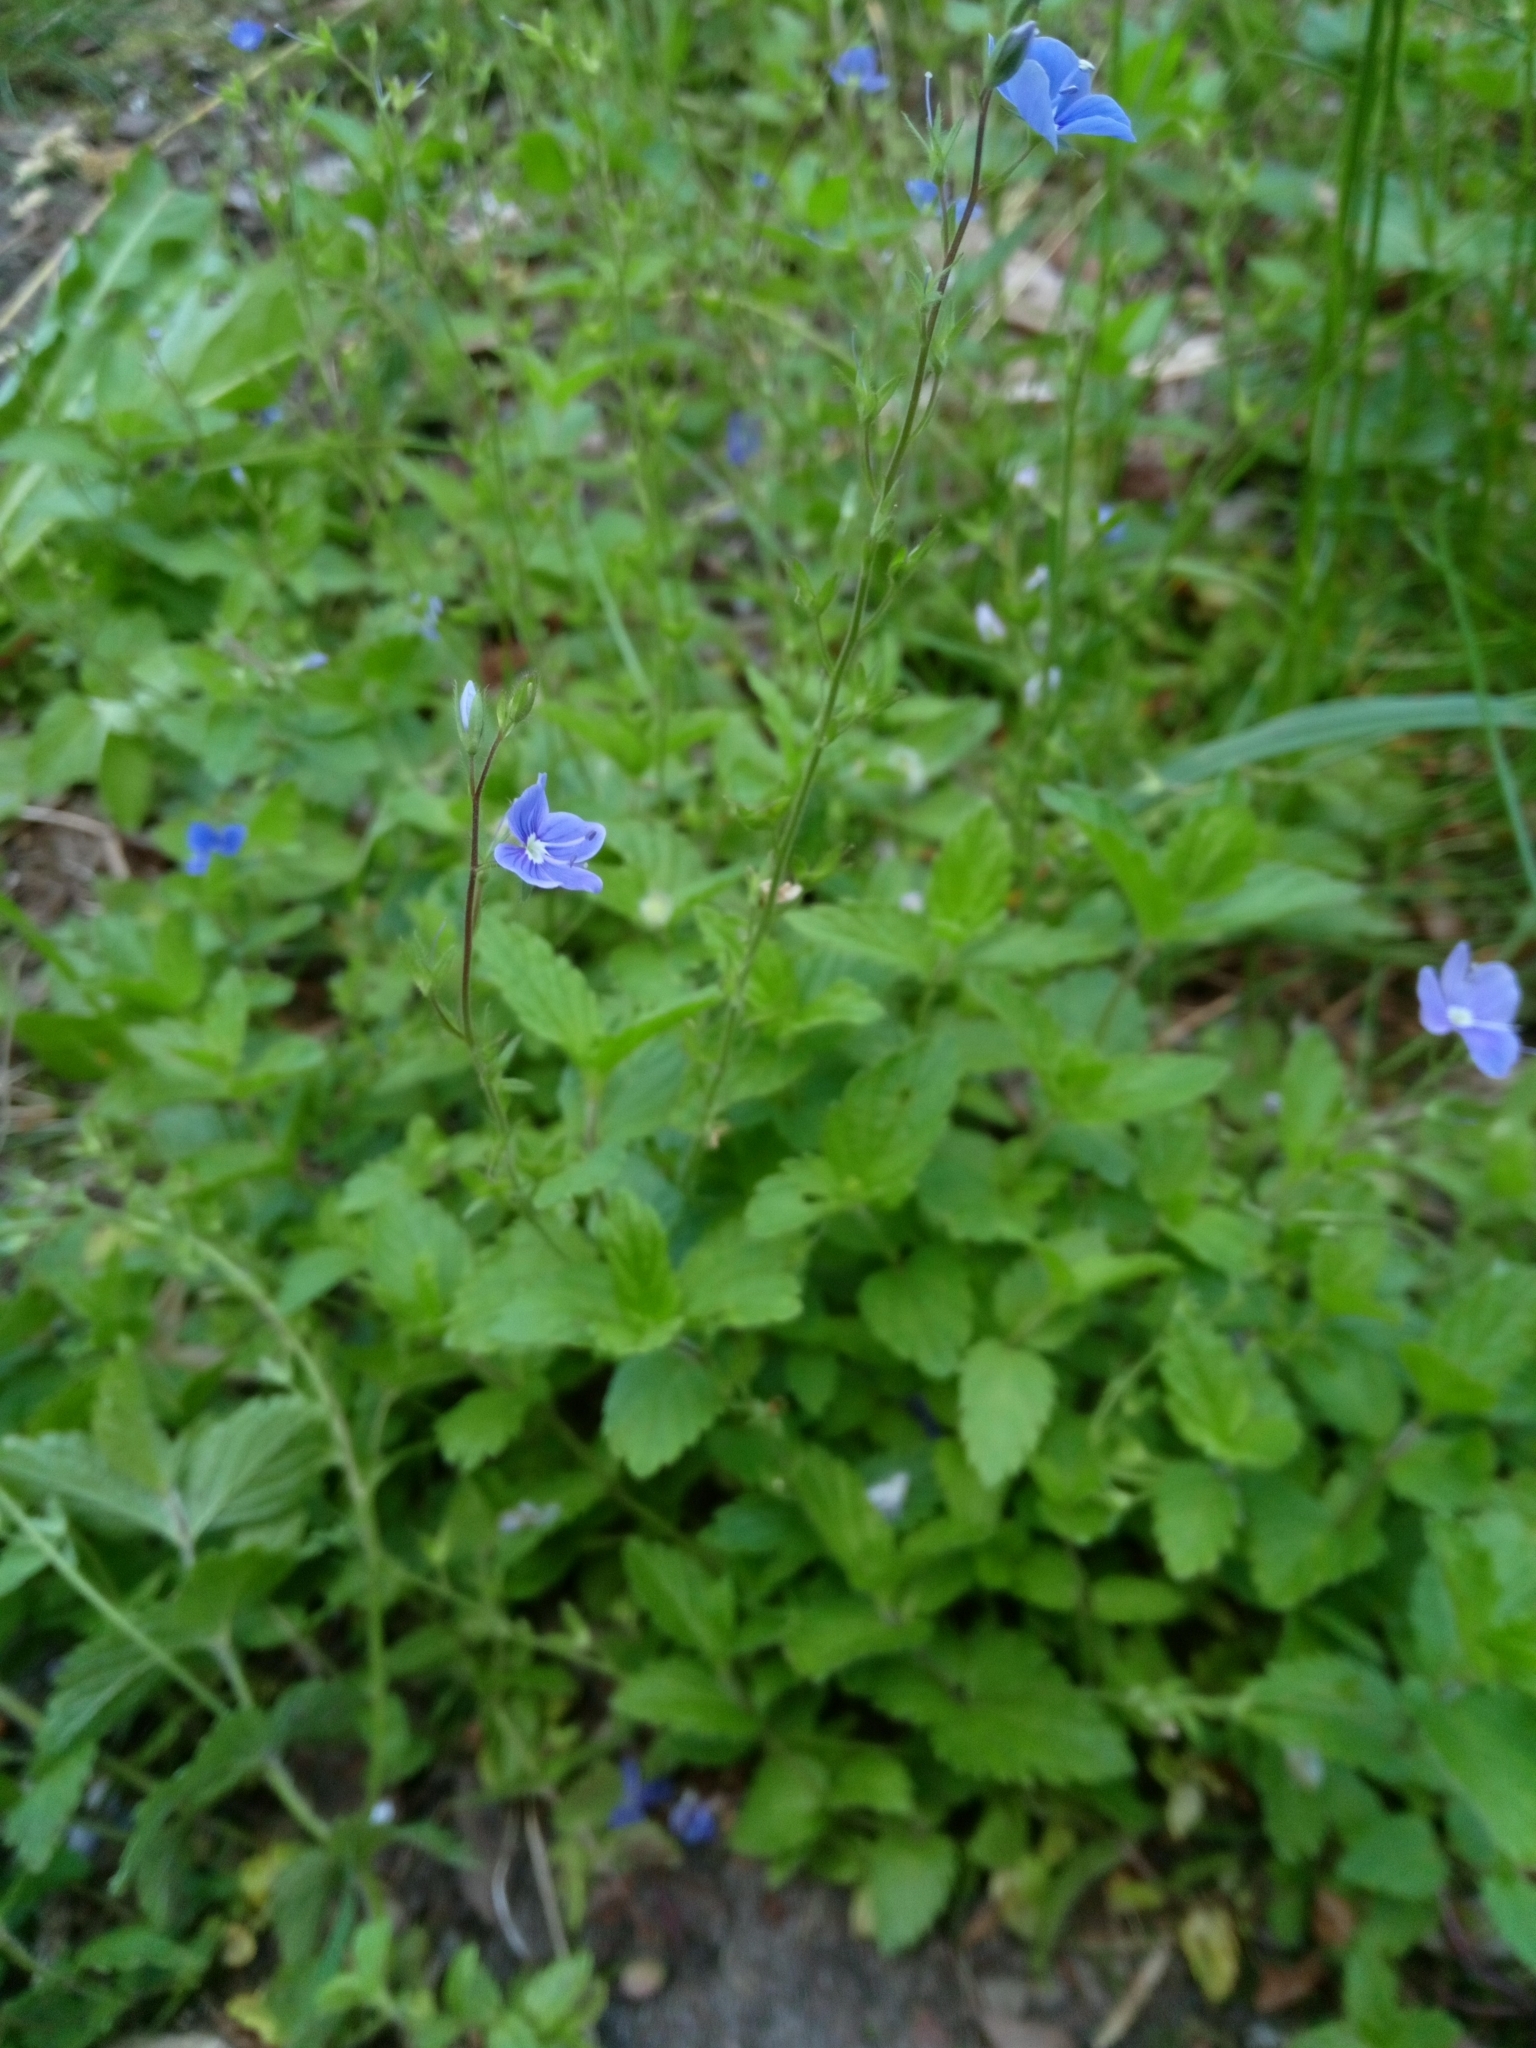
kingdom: Plantae
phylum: Tracheophyta
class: Magnoliopsida
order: Lamiales
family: Plantaginaceae
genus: Veronica
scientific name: Veronica chamaedrys
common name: Germander speedwell
